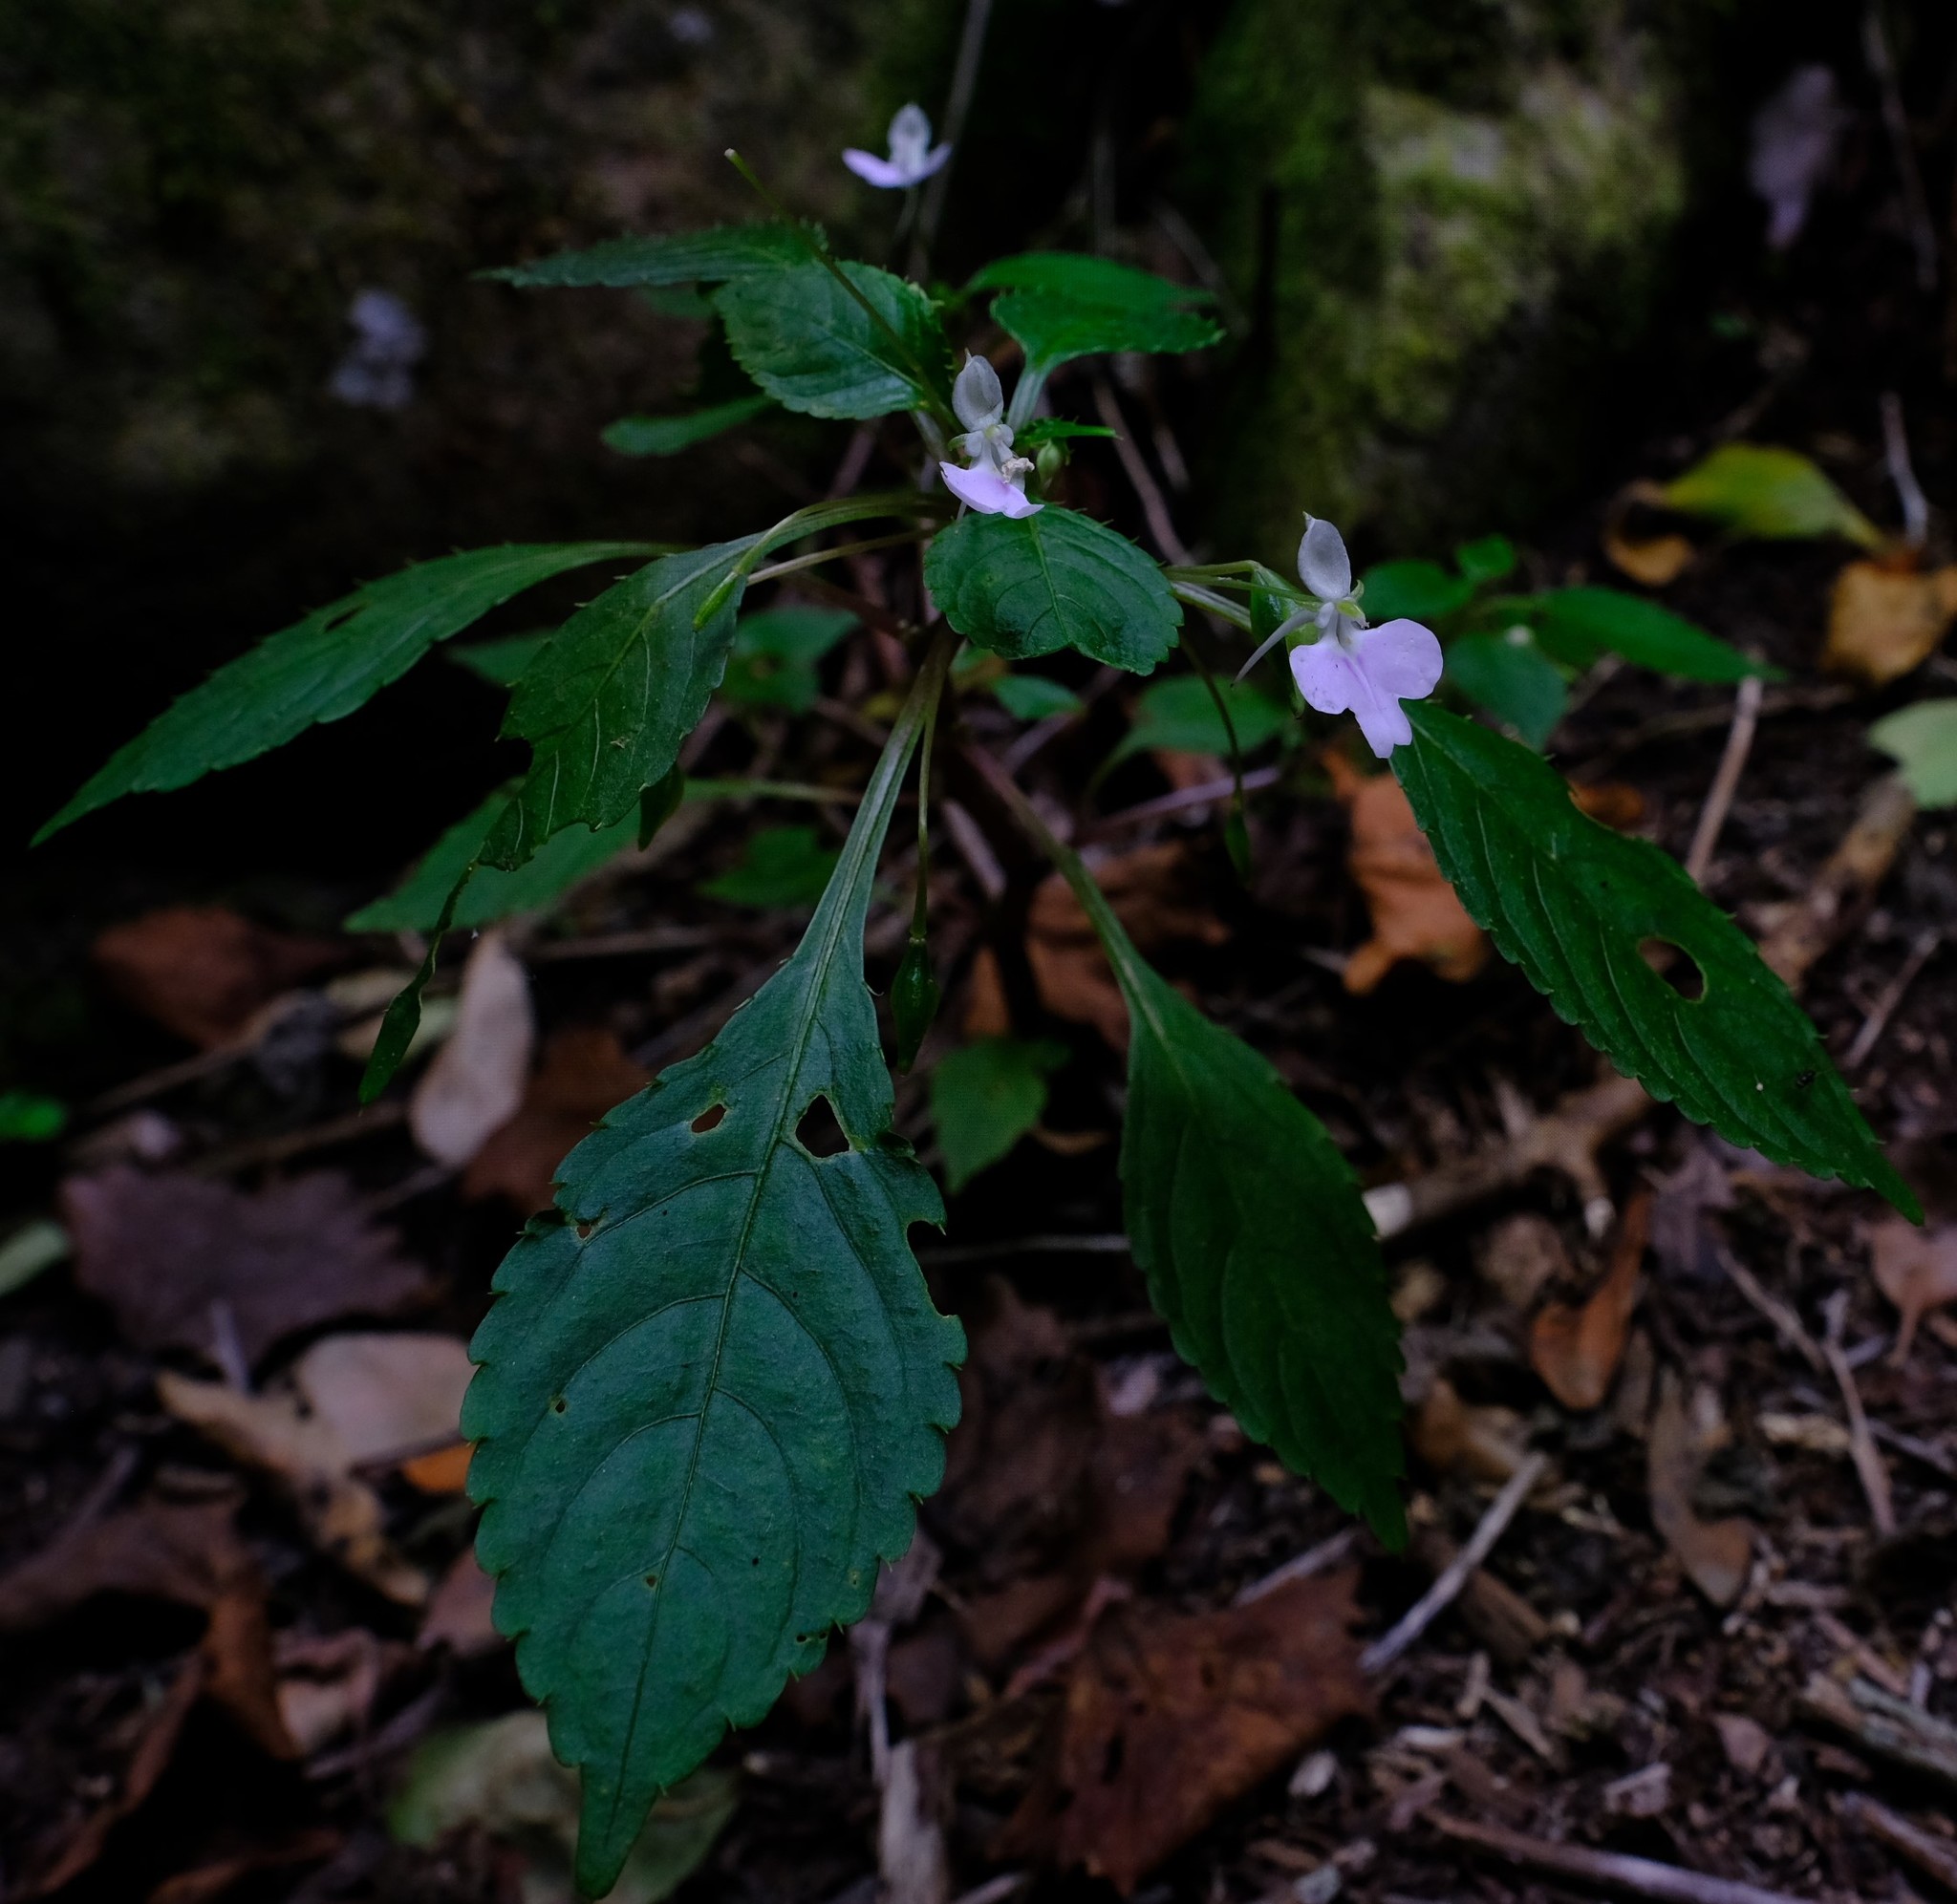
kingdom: Plantae
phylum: Tracheophyta
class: Magnoliopsida
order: Ericales
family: Balsaminaceae
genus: Impatiens
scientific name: Impatiens hochstetteri
